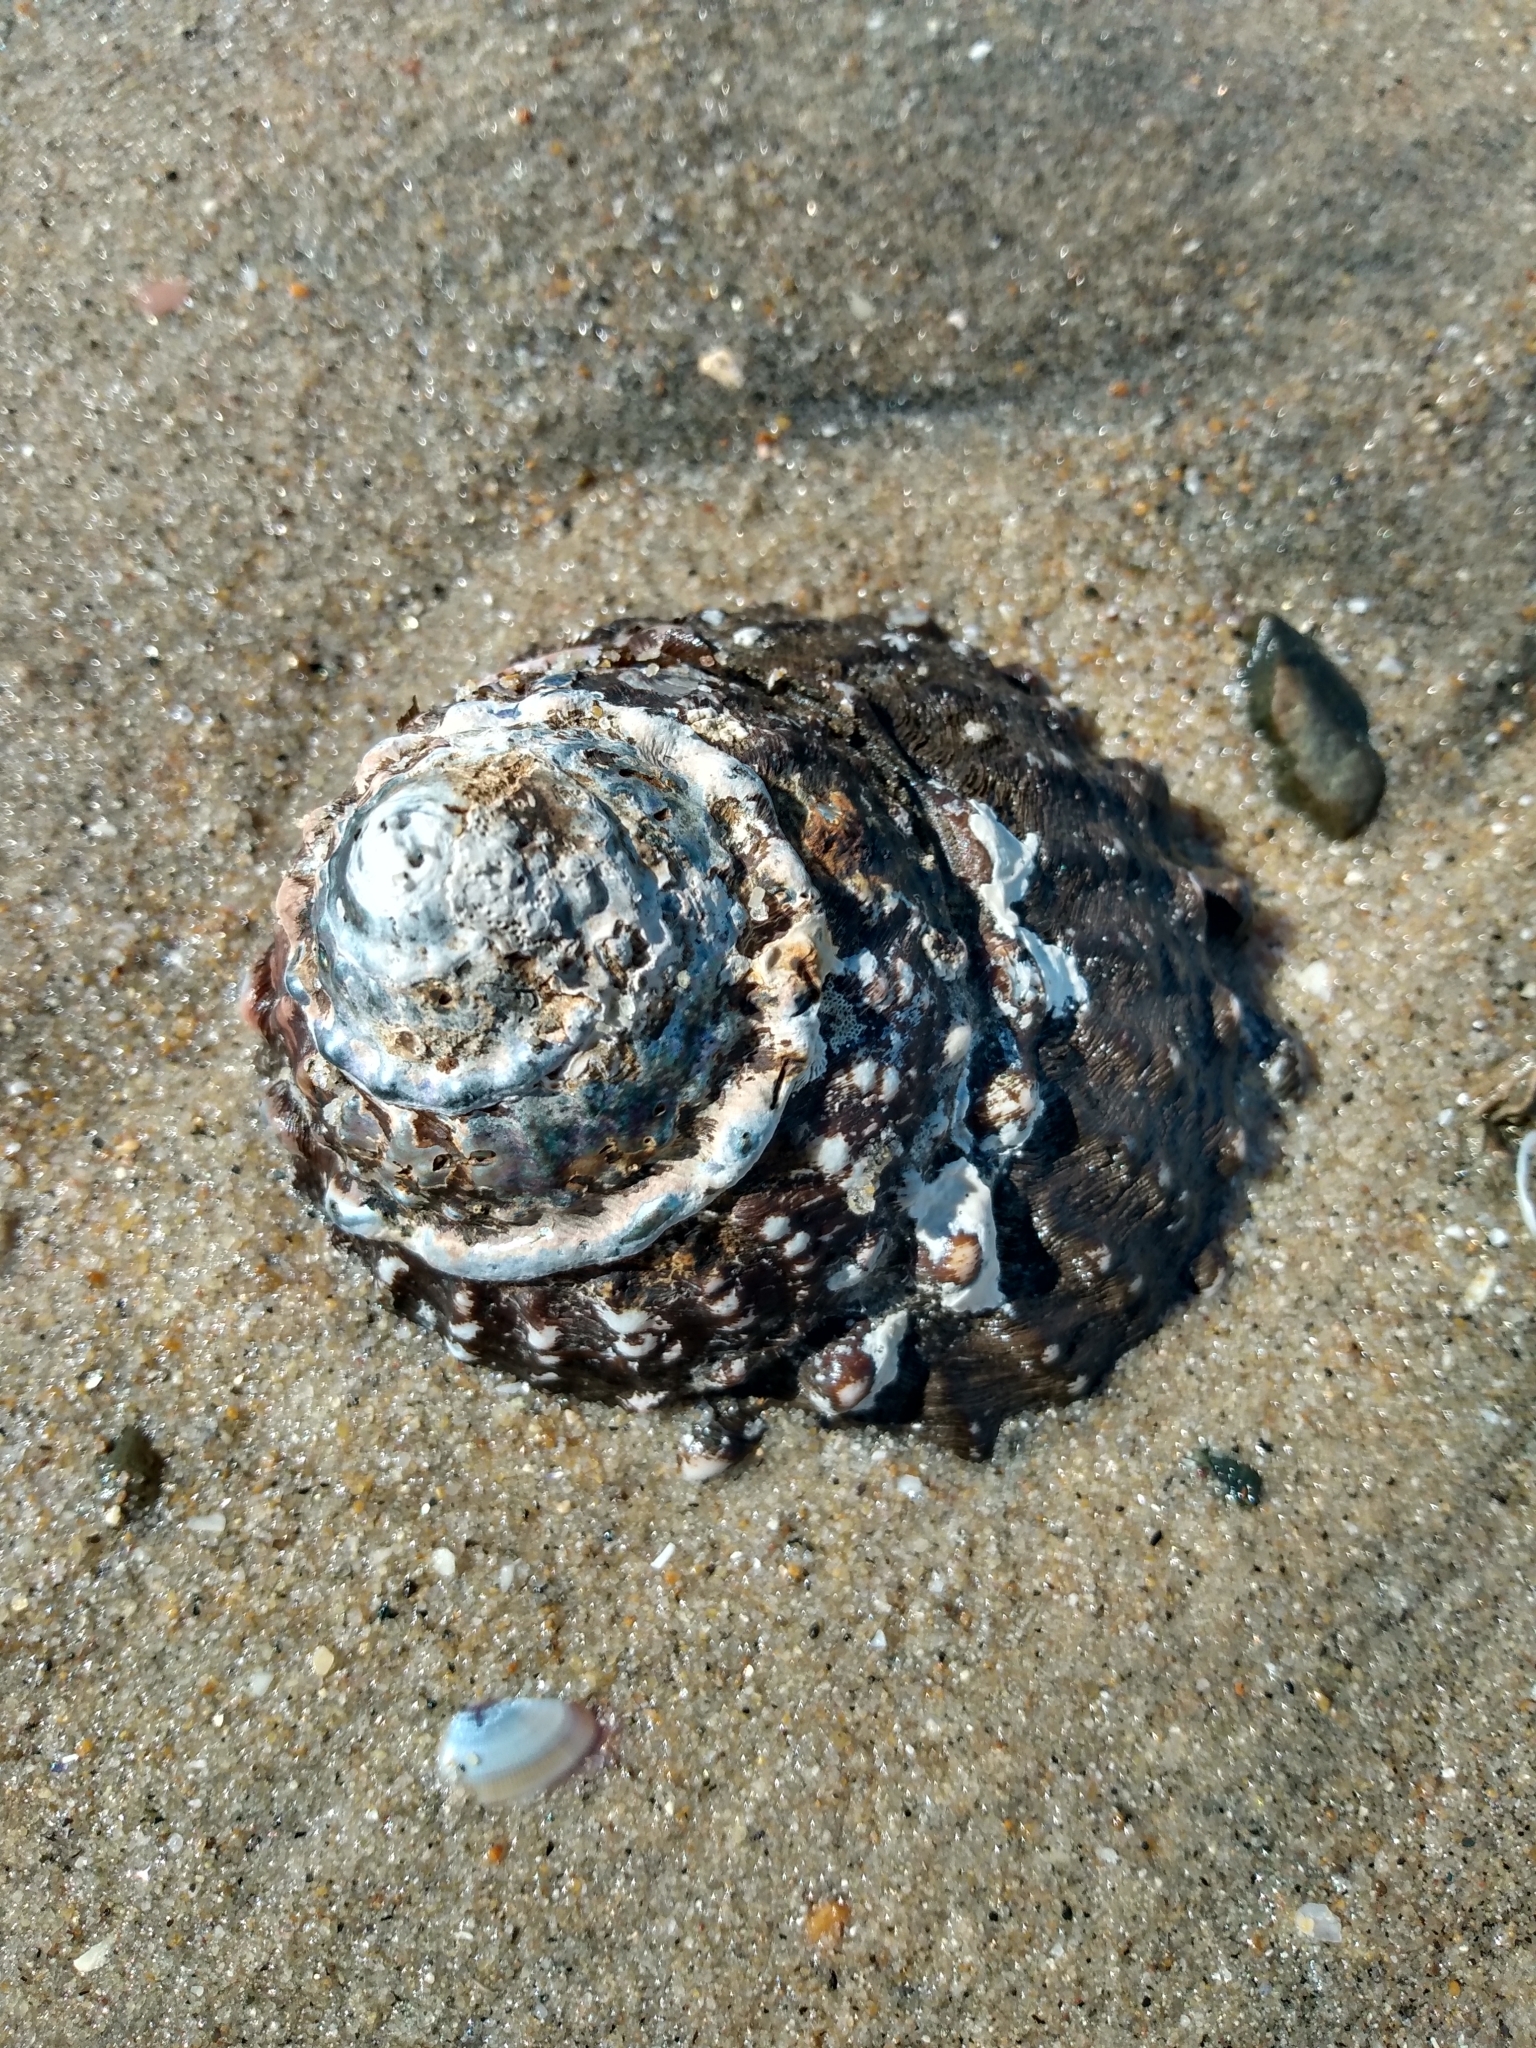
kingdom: Animalia
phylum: Mollusca
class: Gastropoda
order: Trochida
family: Turbinidae
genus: Megastraea
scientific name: Megastraea undosa
